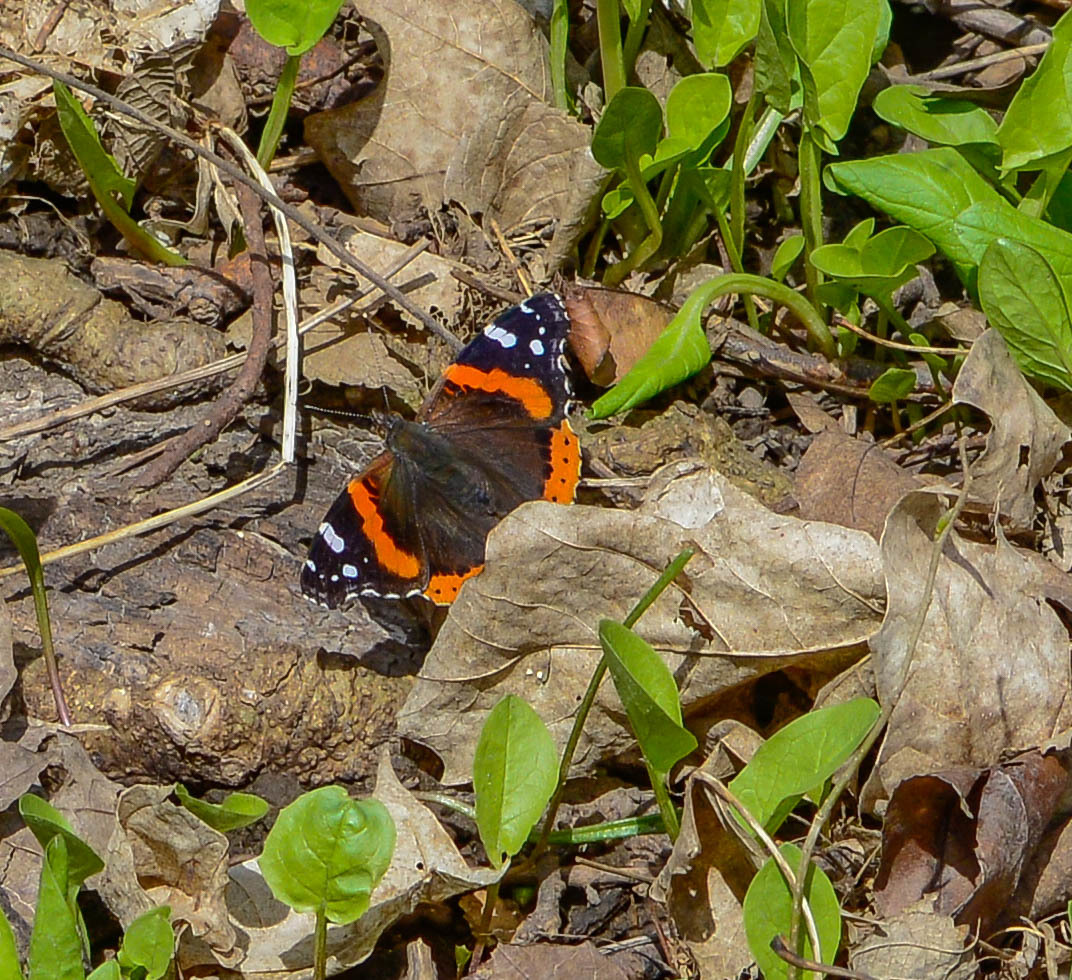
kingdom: Animalia
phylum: Arthropoda
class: Insecta
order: Lepidoptera
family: Nymphalidae
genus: Vanessa
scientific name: Vanessa atalanta
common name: Red admiral
